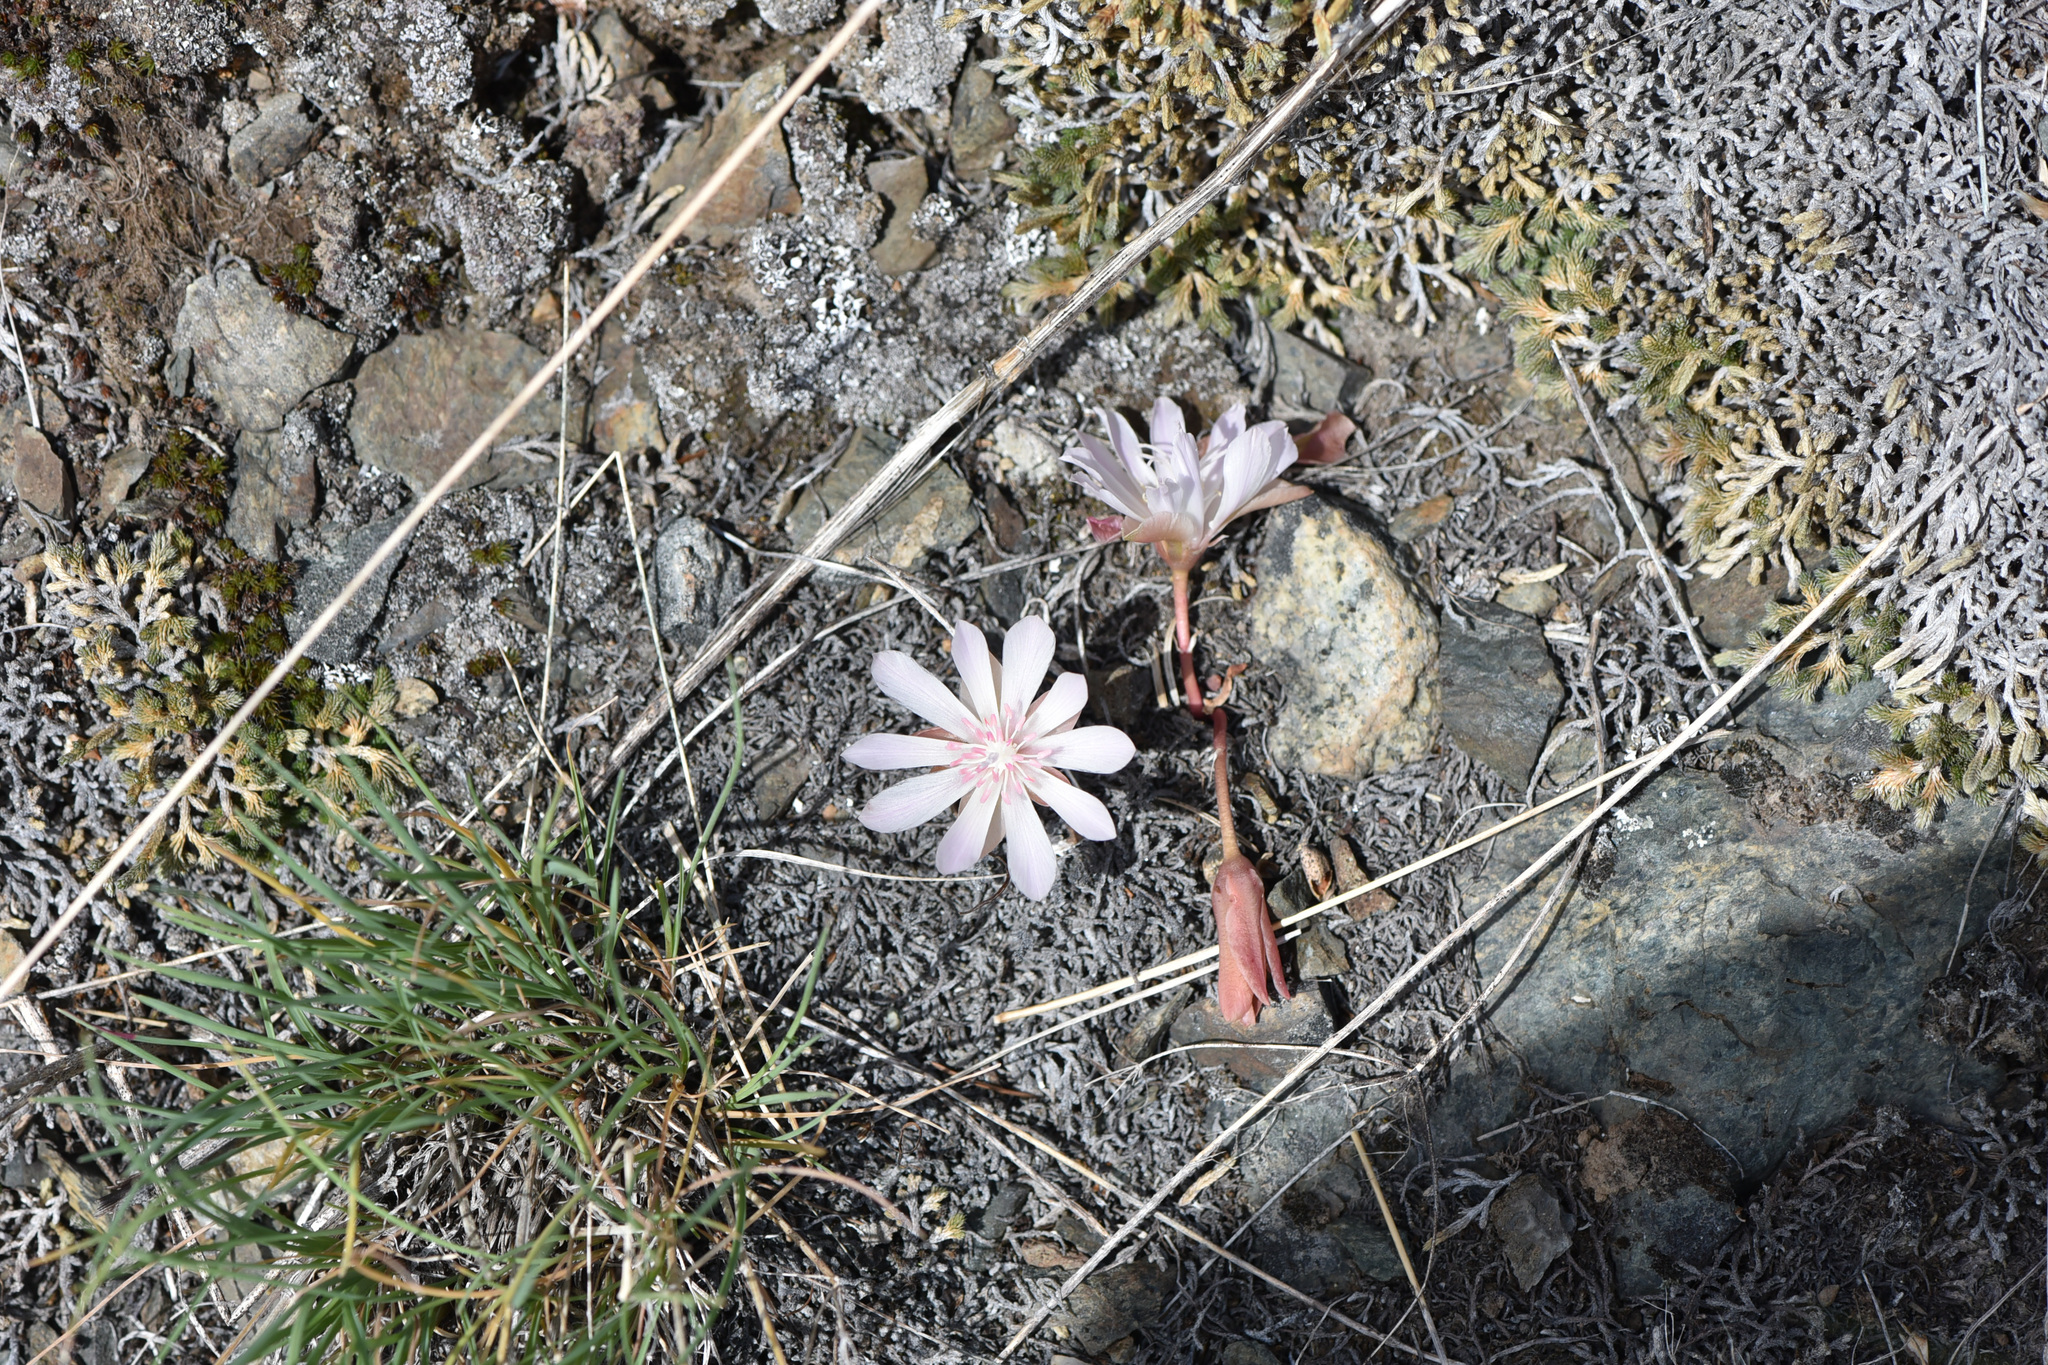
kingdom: Plantae
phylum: Tracheophyta
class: Magnoliopsida
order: Caryophyllales
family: Montiaceae
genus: Lewisia
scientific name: Lewisia rediviva
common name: Bitter-root
